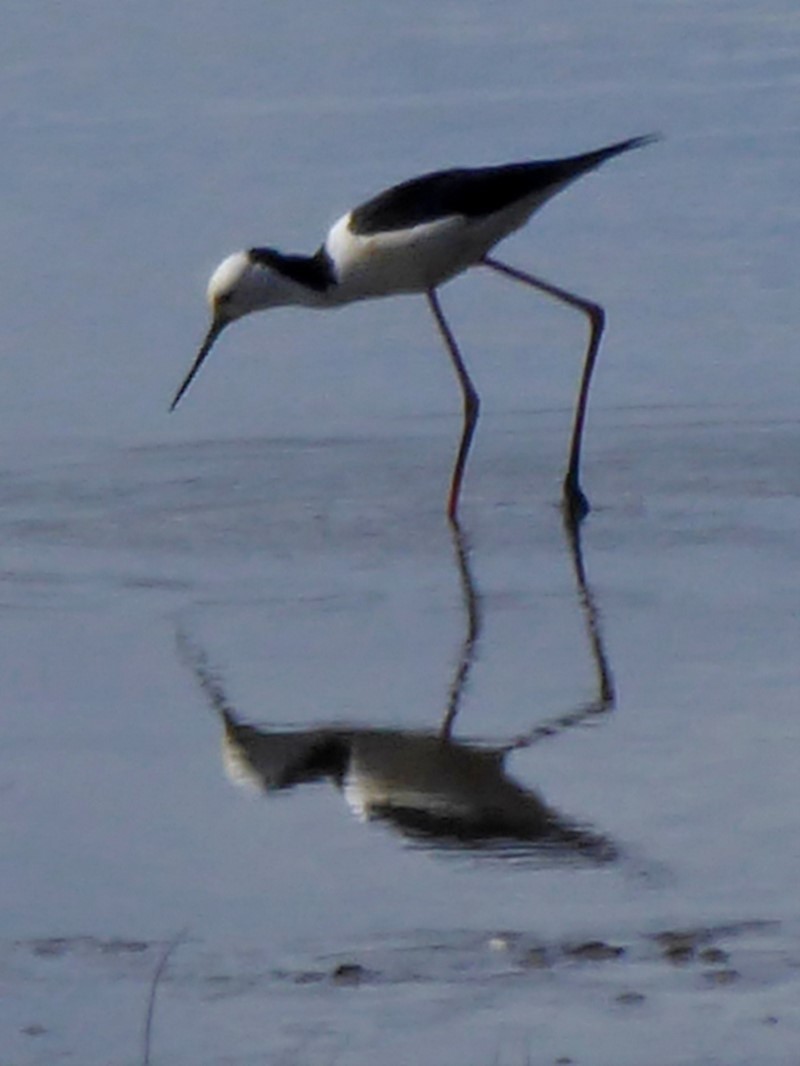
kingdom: Animalia
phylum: Chordata
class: Aves
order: Charadriiformes
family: Recurvirostridae
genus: Himantopus
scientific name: Himantopus leucocephalus
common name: White-headed stilt
